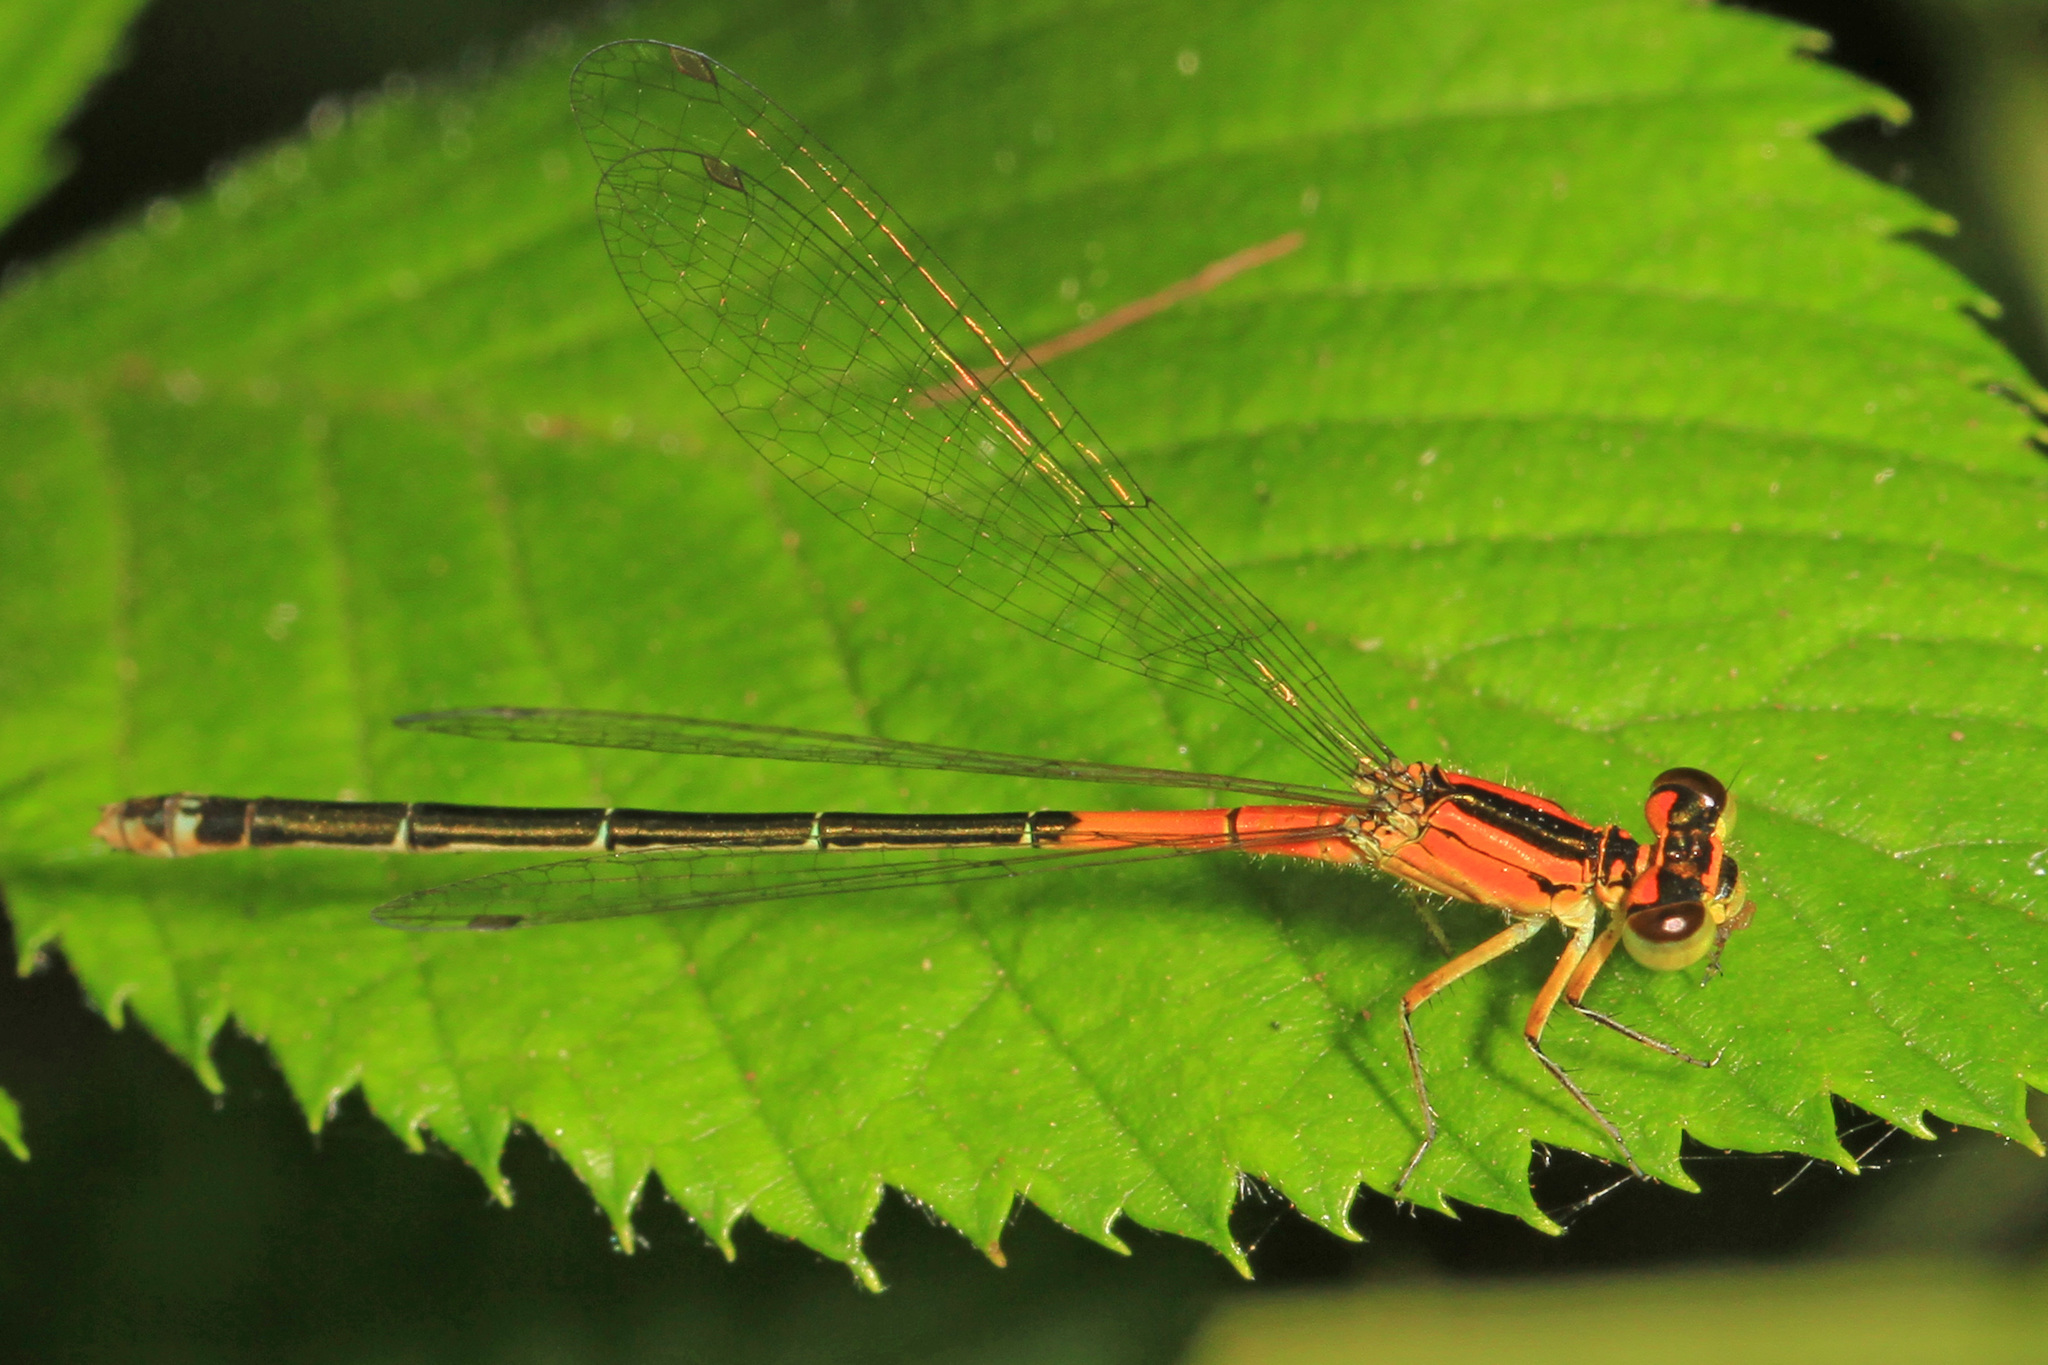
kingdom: Animalia
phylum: Arthropoda
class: Insecta
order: Odonata
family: Coenagrionidae
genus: Ischnura
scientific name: Ischnura verticalis
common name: Eastern forktail
